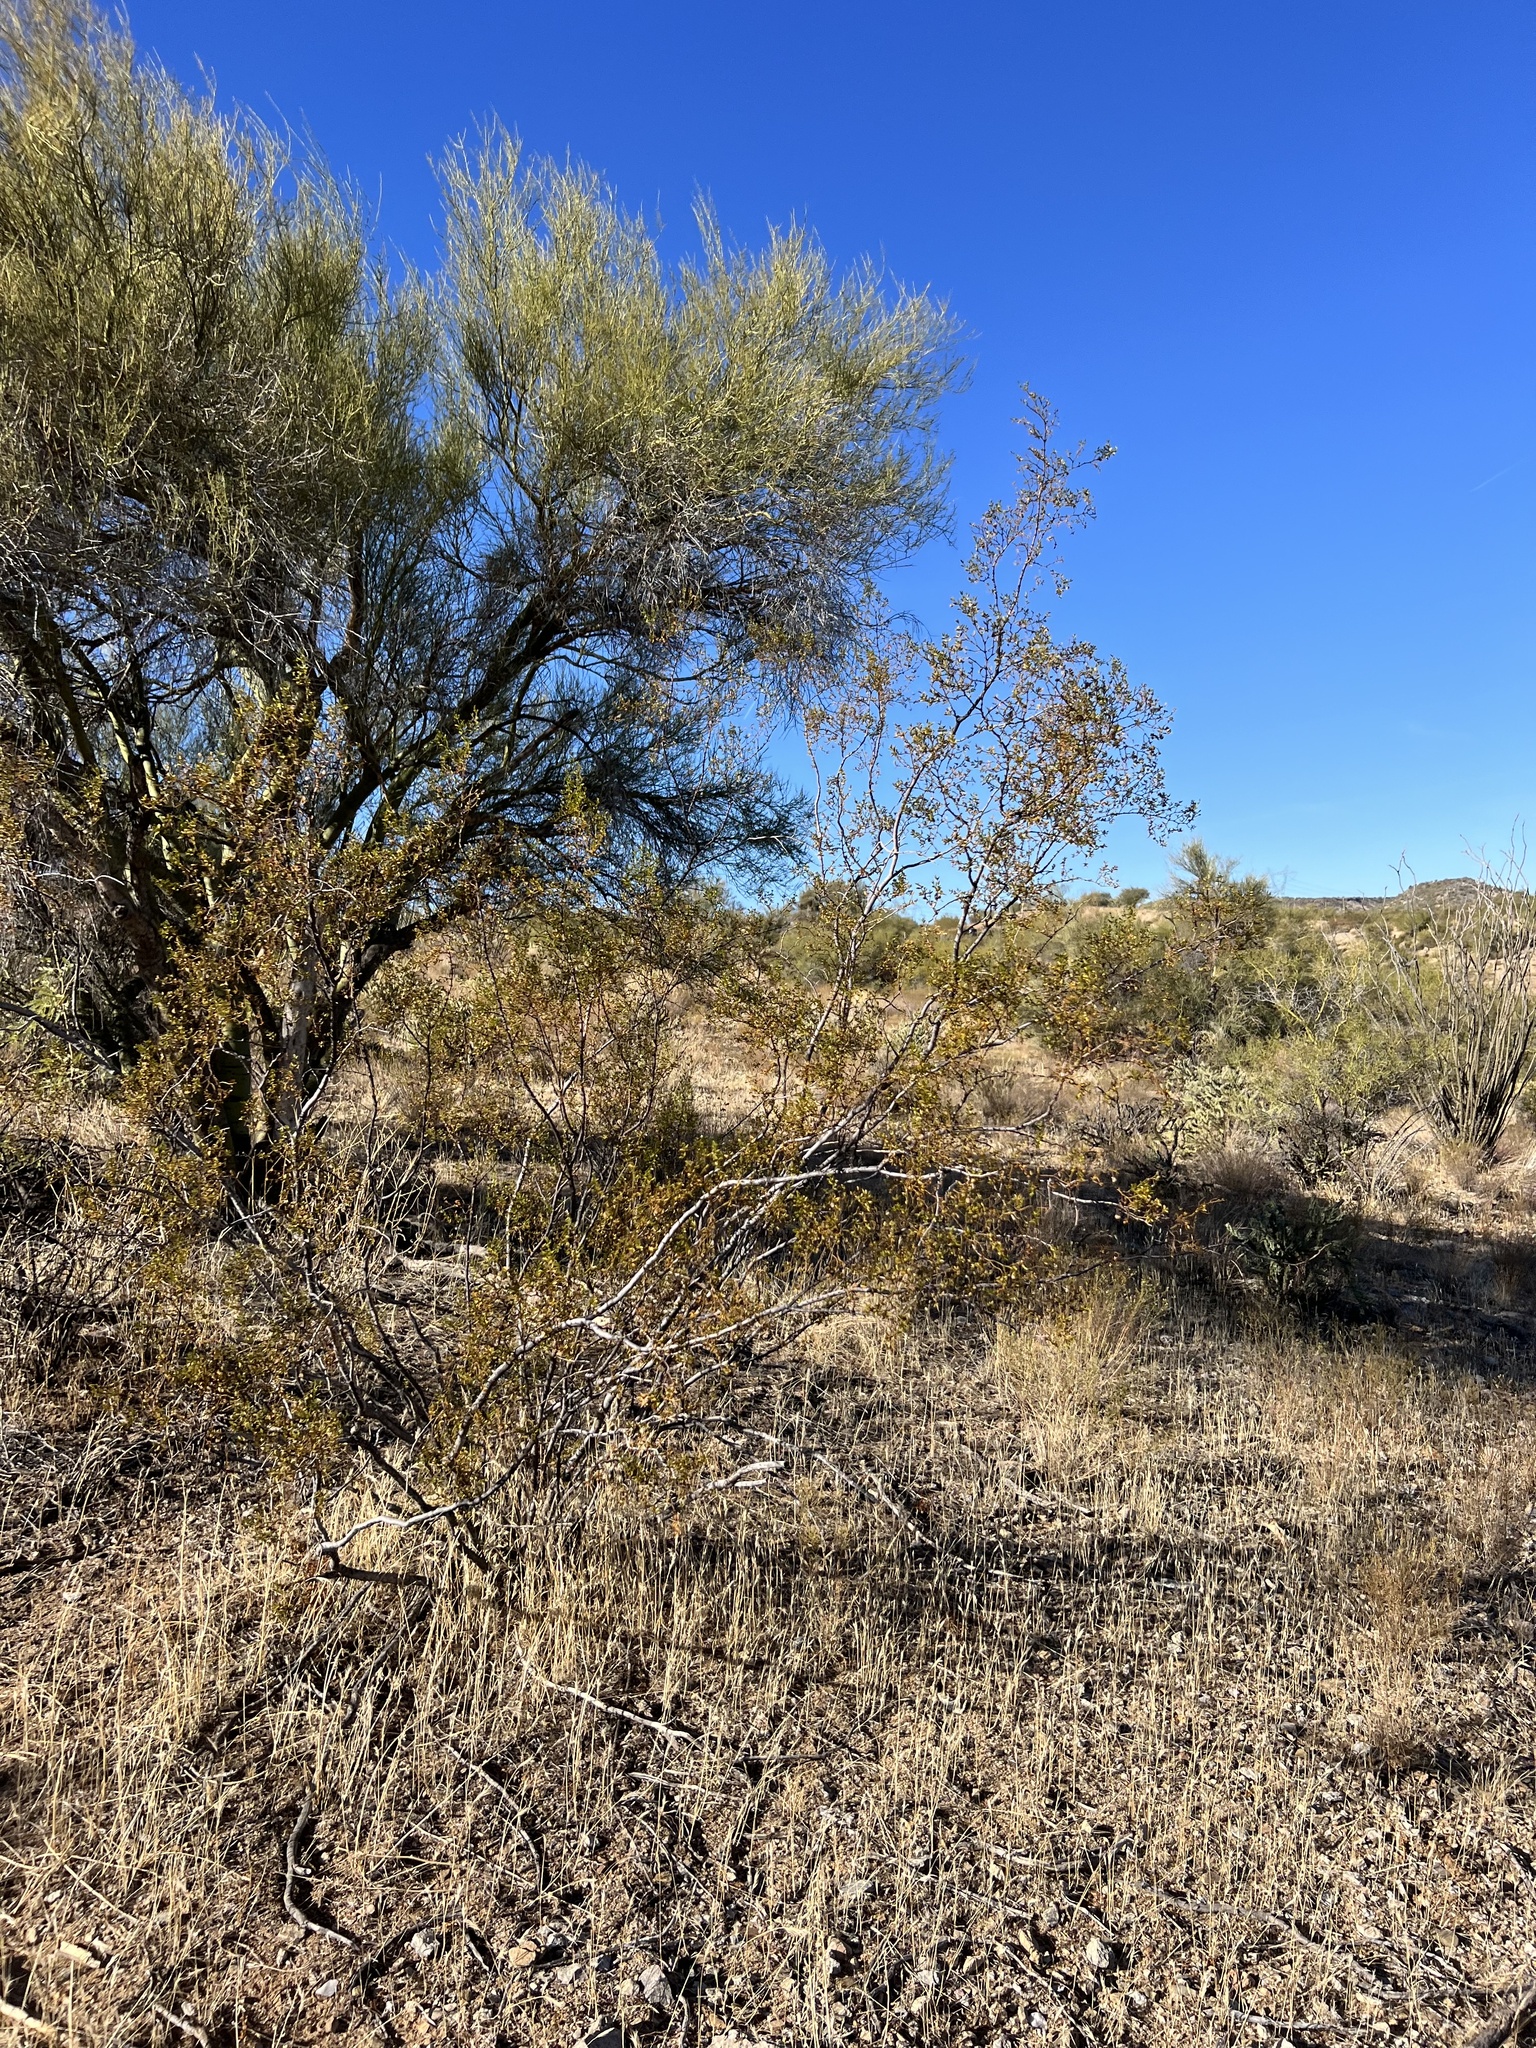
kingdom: Plantae
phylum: Tracheophyta
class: Magnoliopsida
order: Zygophyllales
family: Zygophyllaceae
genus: Larrea
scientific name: Larrea tridentata
